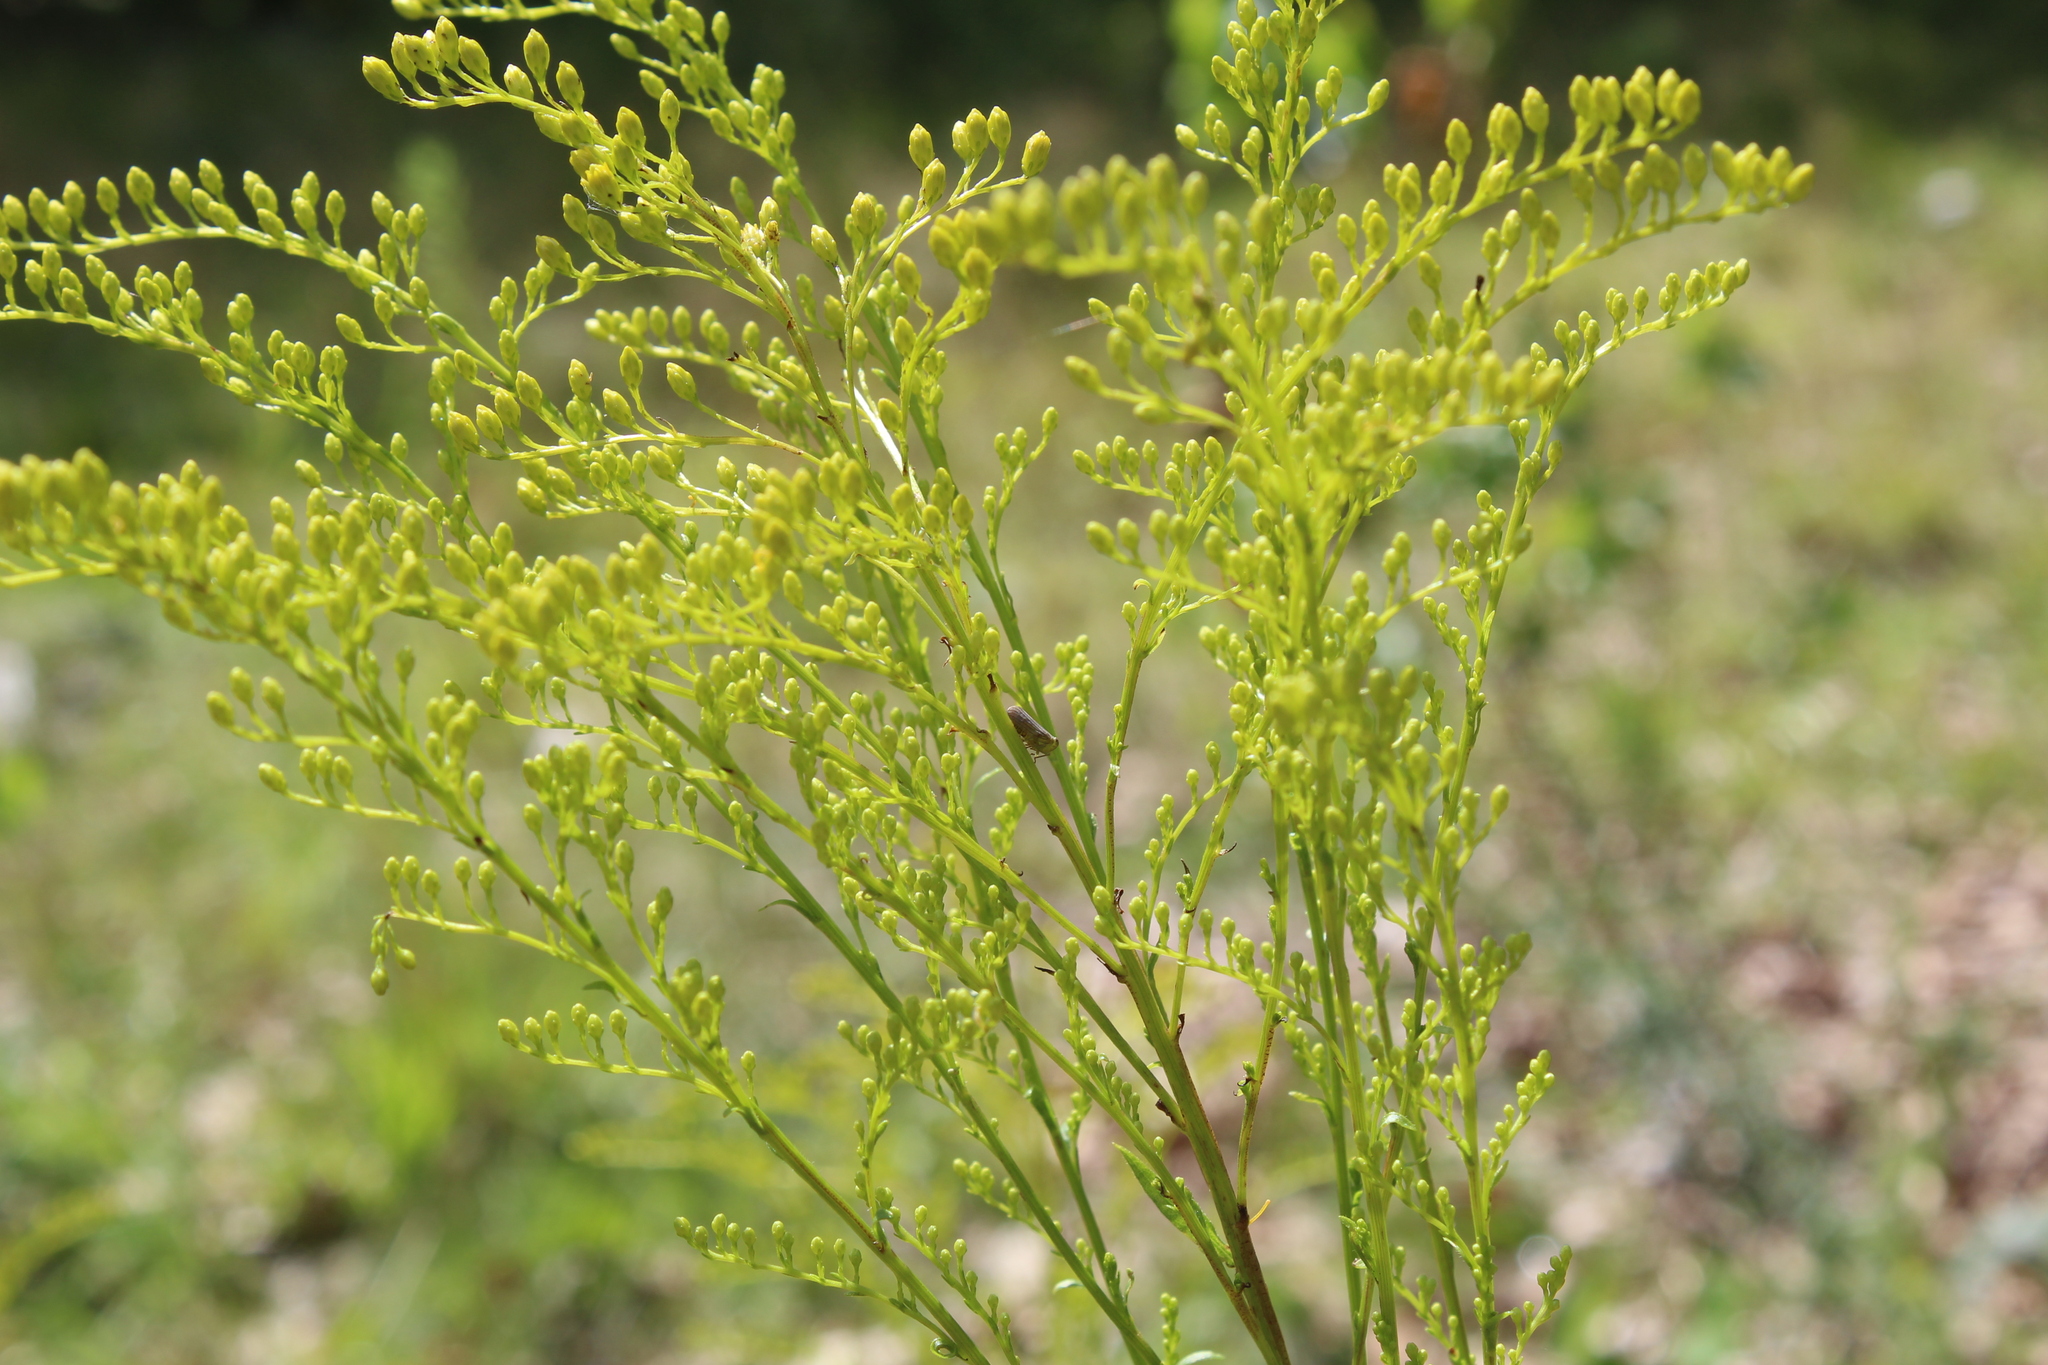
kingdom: Animalia
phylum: Arthropoda
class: Insecta
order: Hemiptera
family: Issidae
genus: Aplos
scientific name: Aplos simplex
